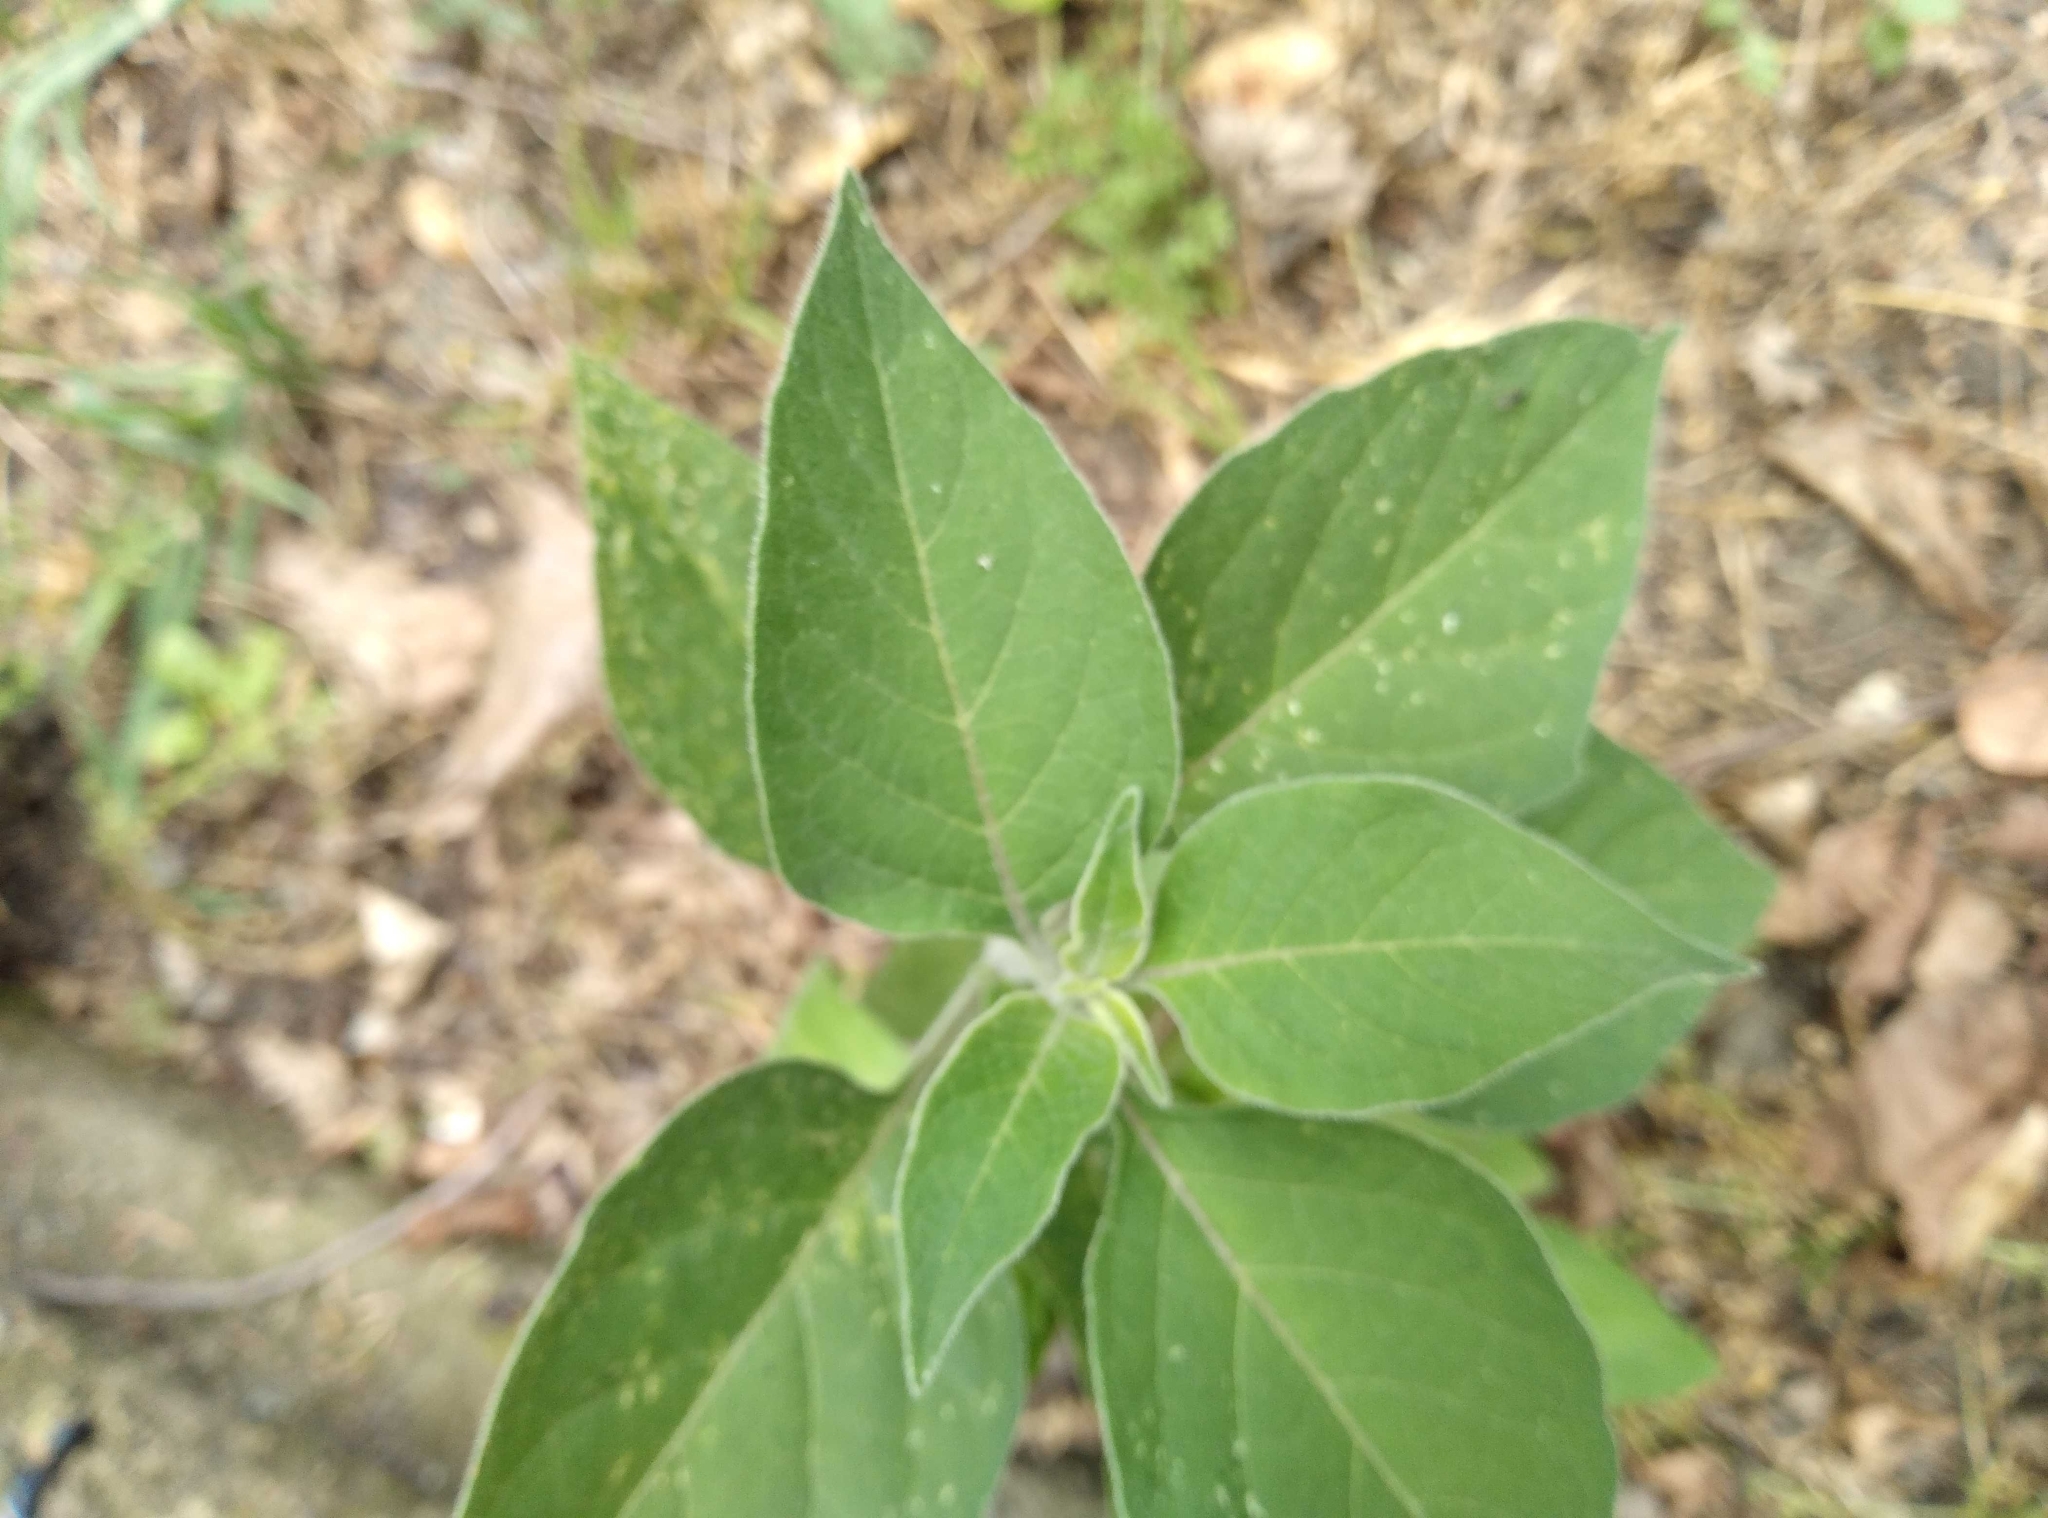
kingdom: Plantae
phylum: Tracheophyta
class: Magnoliopsida
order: Solanales
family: Solanaceae
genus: Solanum
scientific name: Solanum chenopodioides
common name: Tall nightshade
